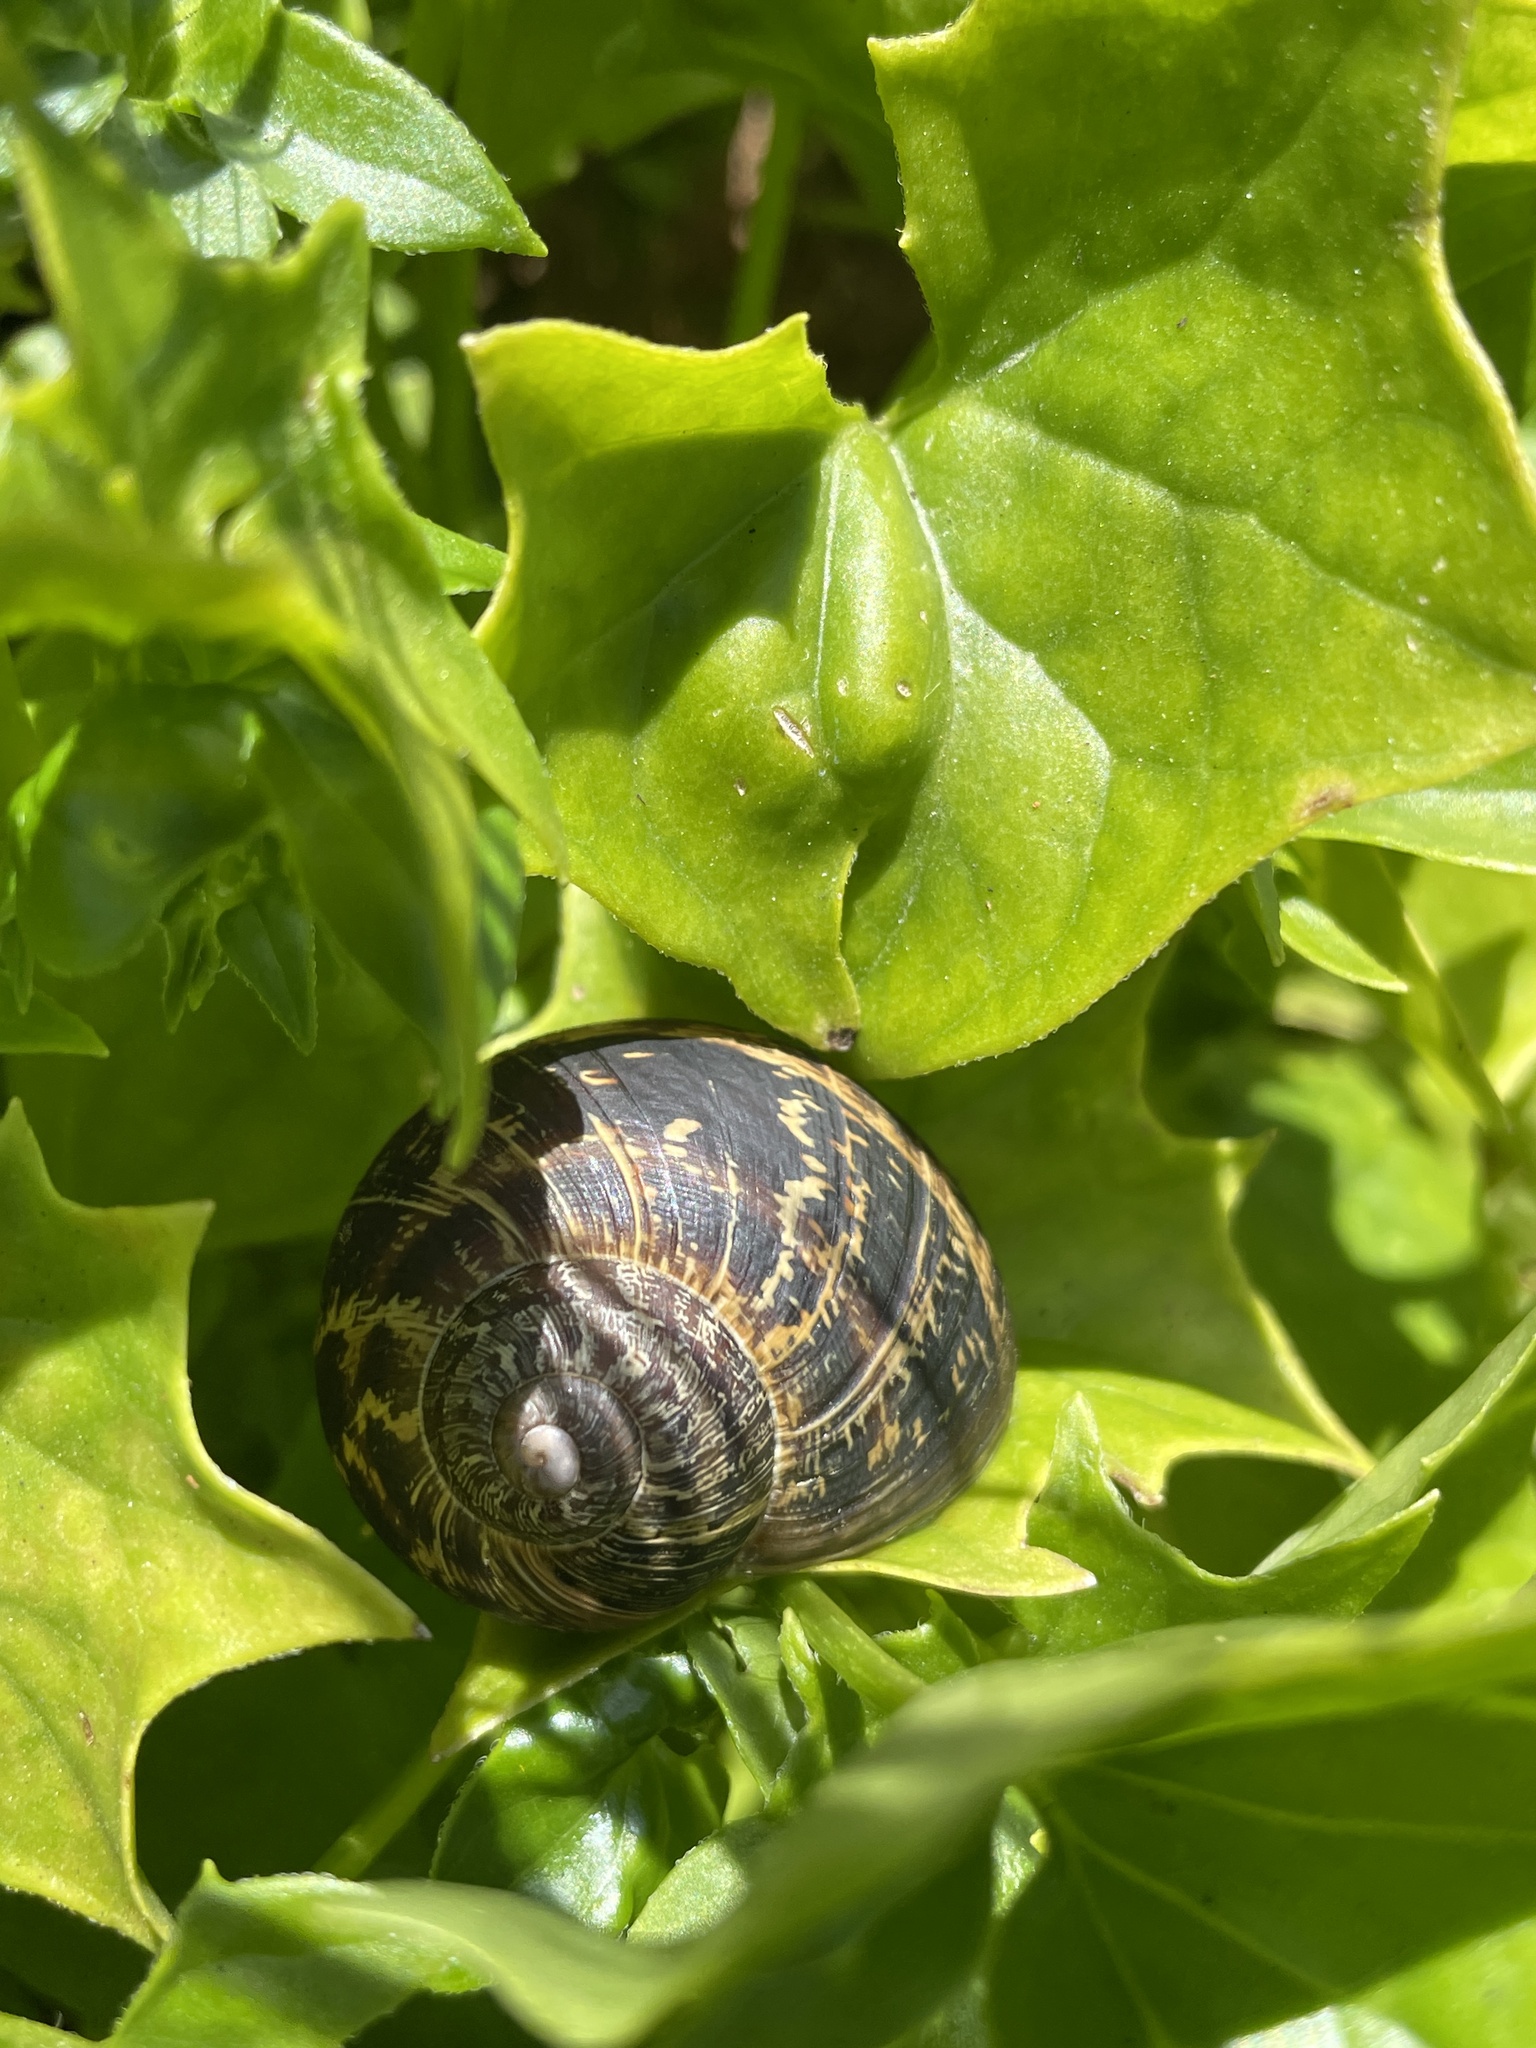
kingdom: Animalia
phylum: Mollusca
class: Gastropoda
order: Stylommatophora
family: Helicidae
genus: Cornu
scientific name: Cornu aspersum
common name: Brown garden snail
